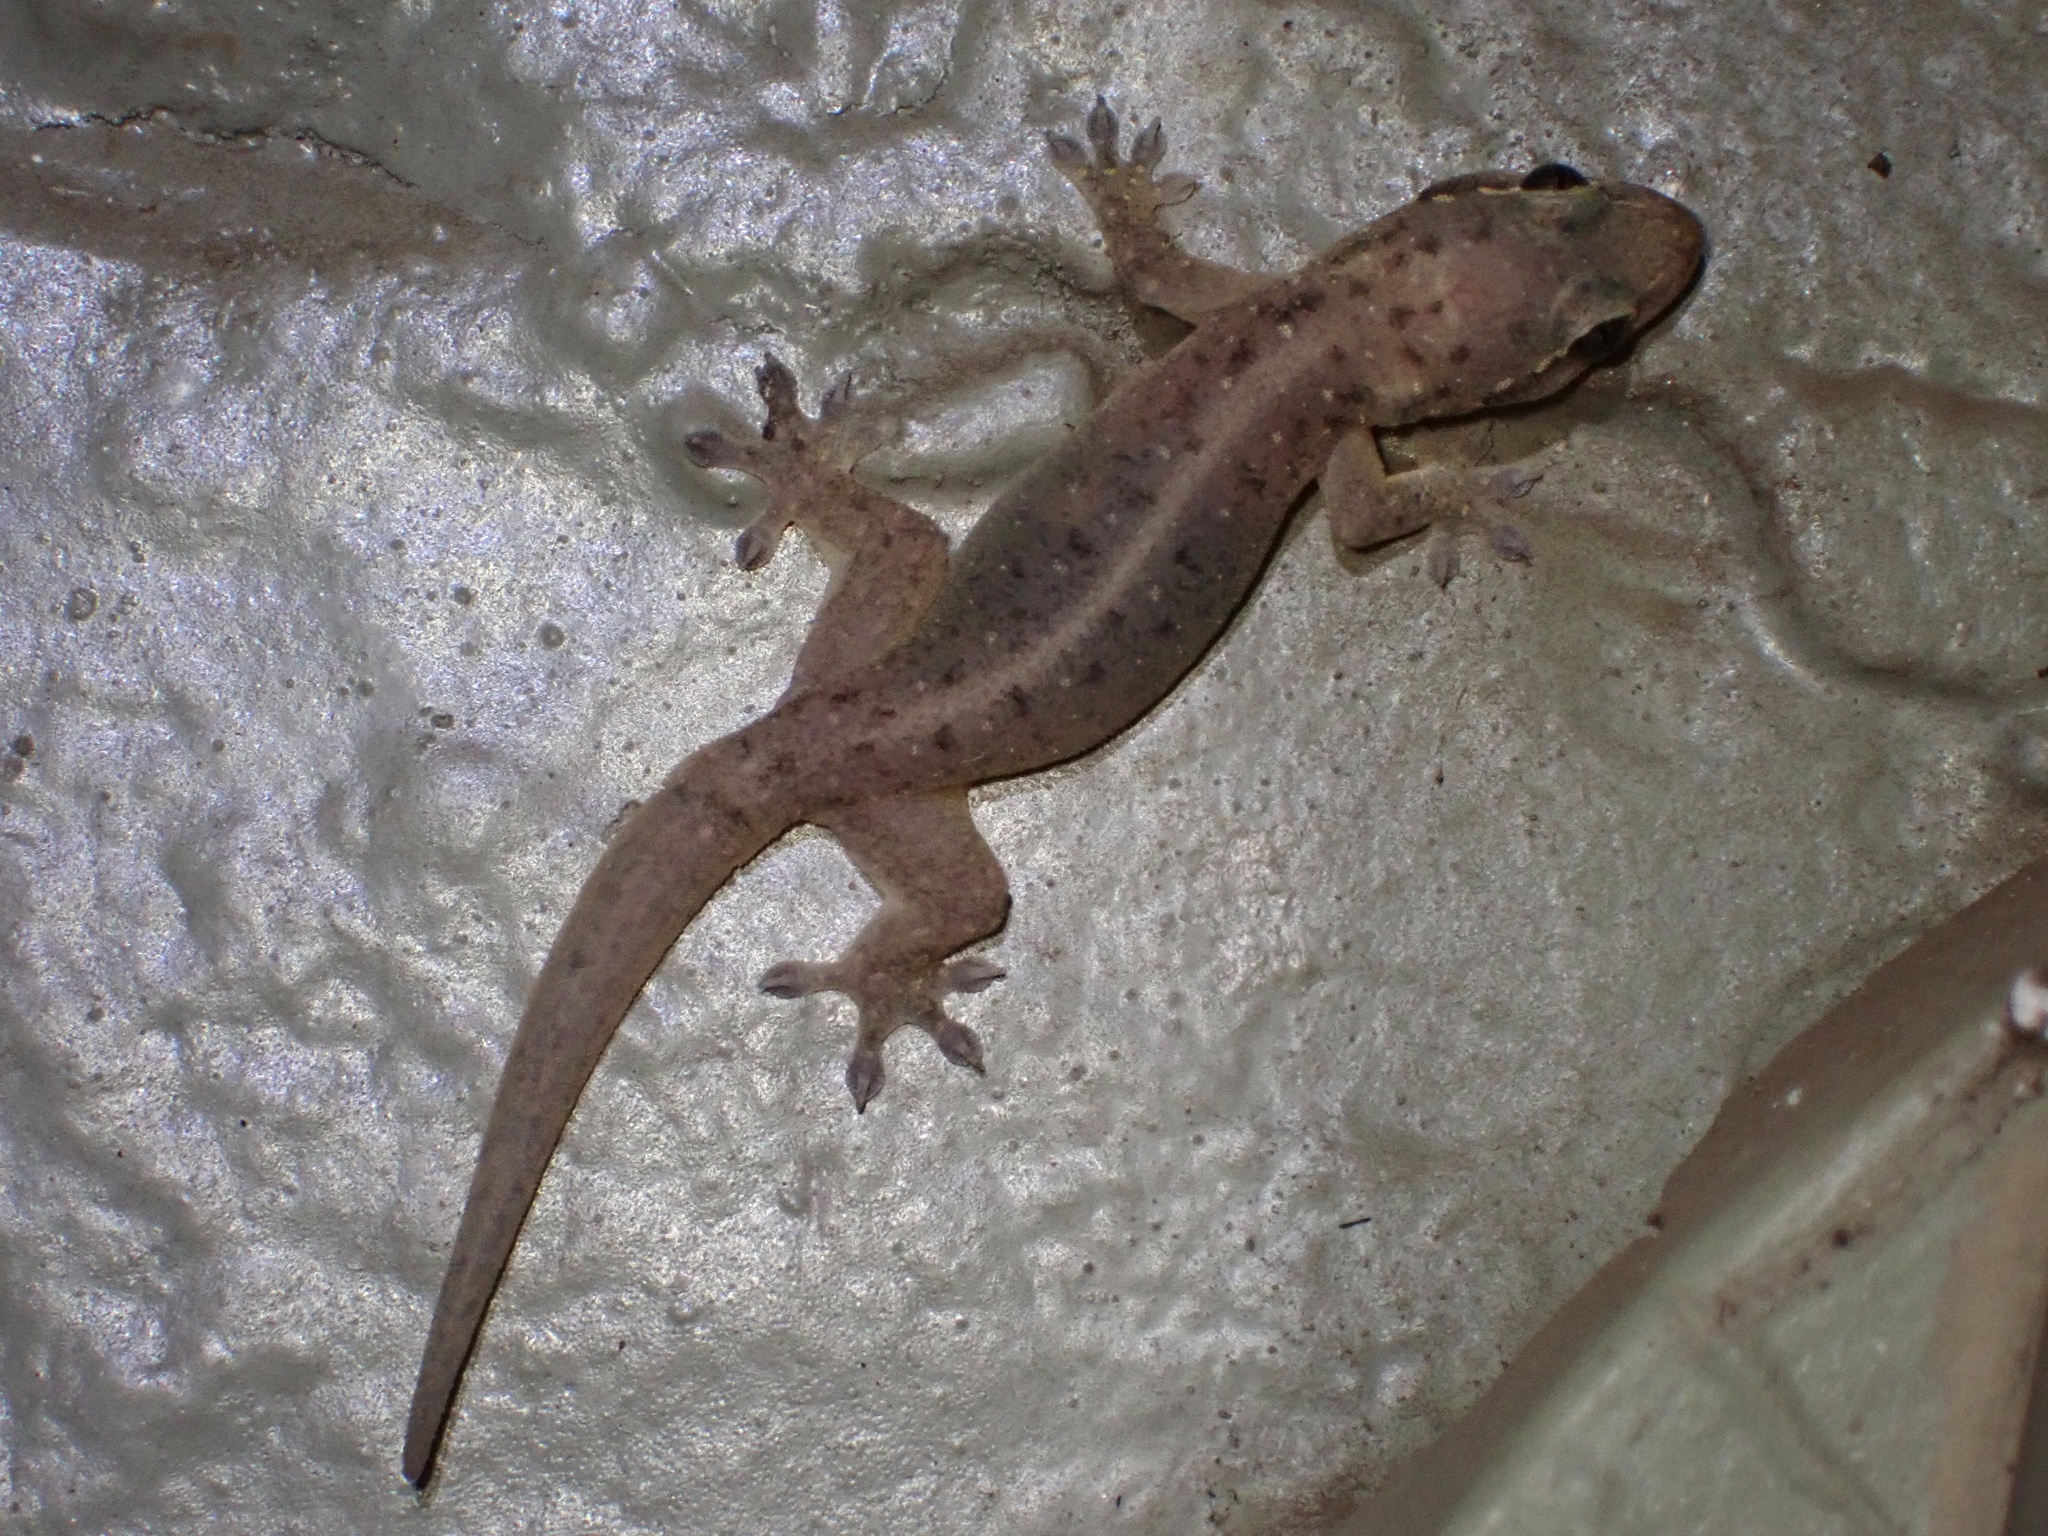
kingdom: Animalia
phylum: Chordata
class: Squamata
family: Gekkonidae
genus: Gehyra
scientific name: Gehyra mutilata
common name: Stump-toed gecko
